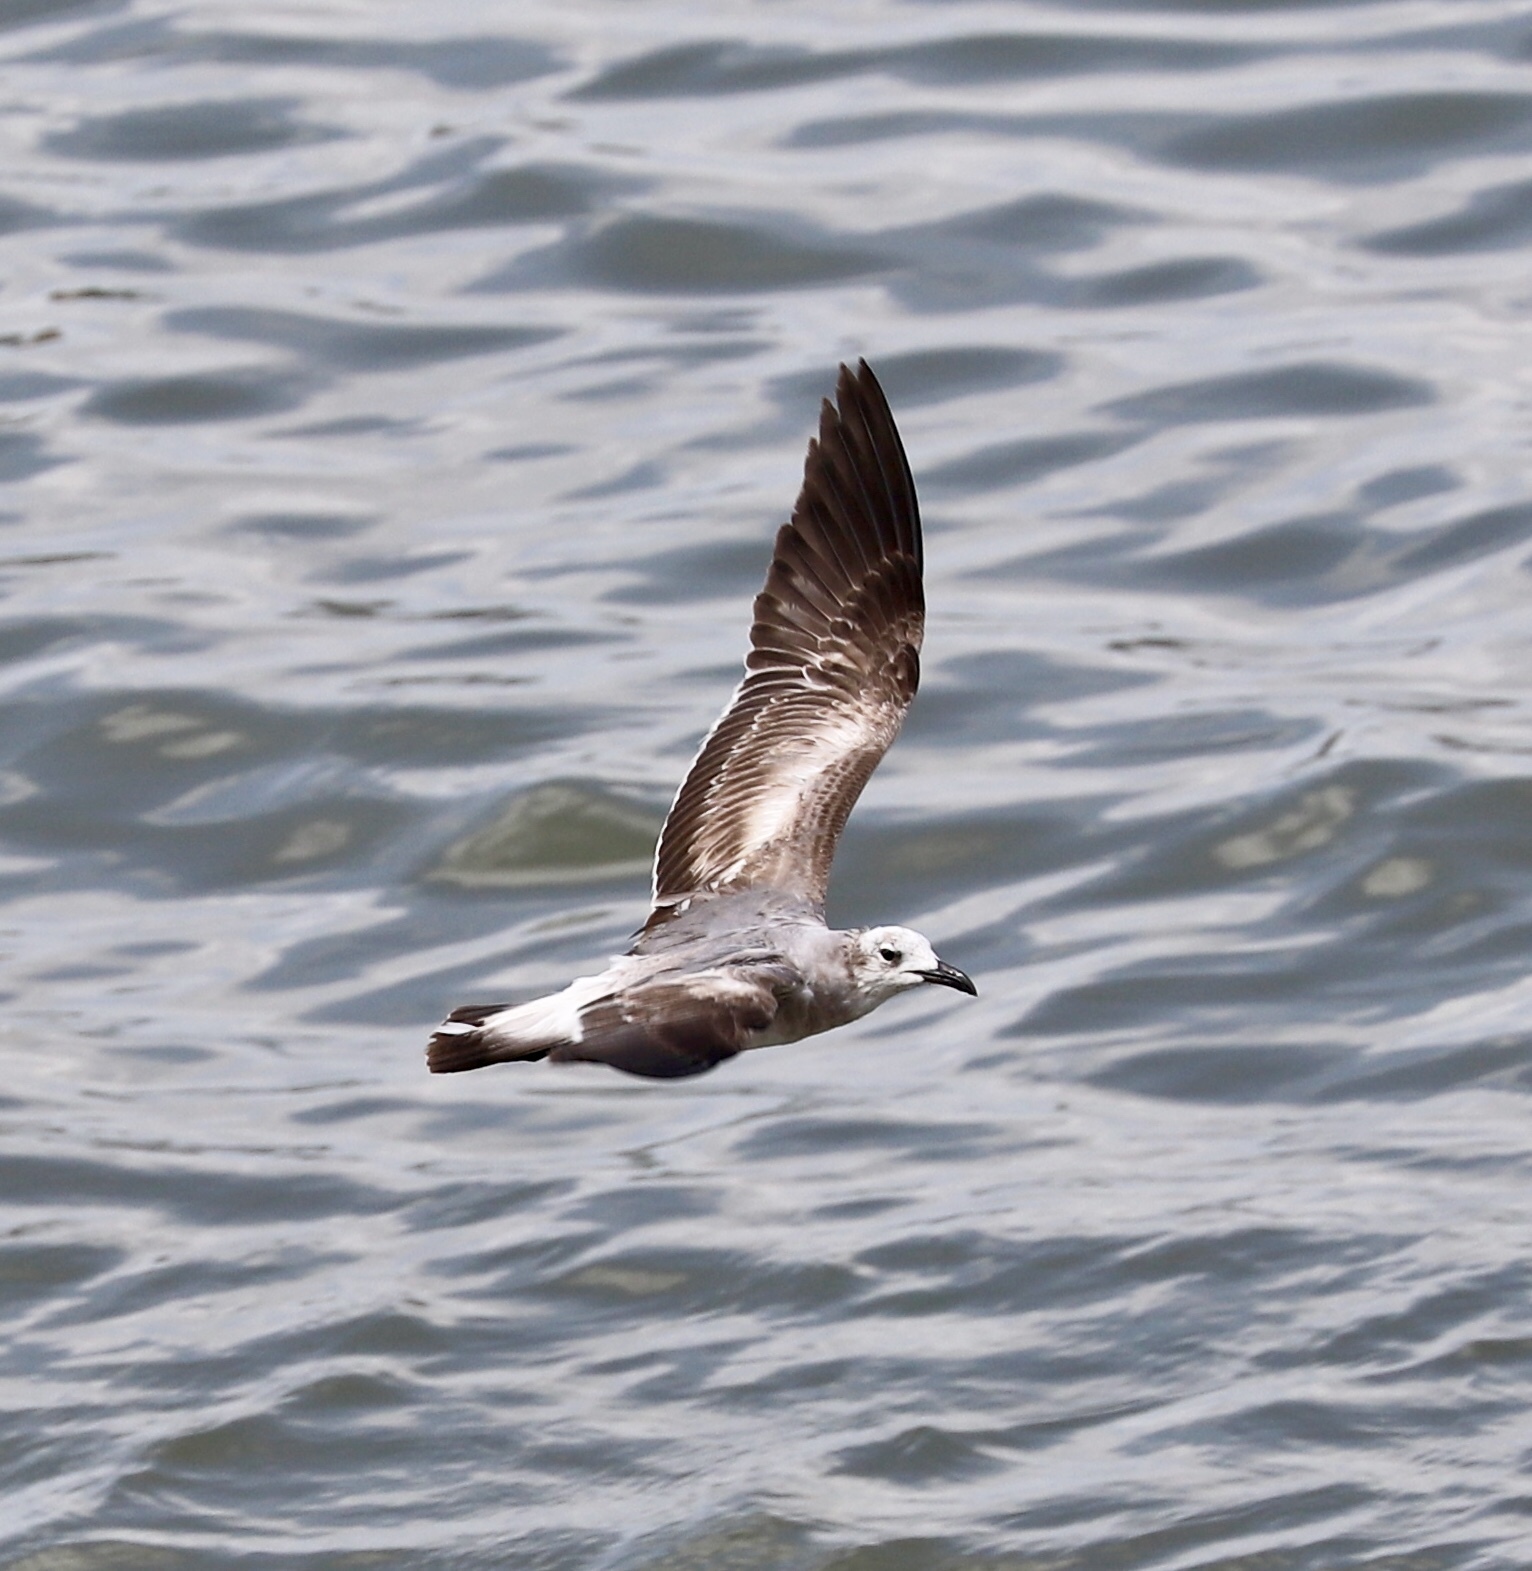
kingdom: Animalia
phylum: Chordata
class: Aves
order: Charadriiformes
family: Laridae
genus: Leucophaeus
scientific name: Leucophaeus atricilla
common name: Laughing gull
